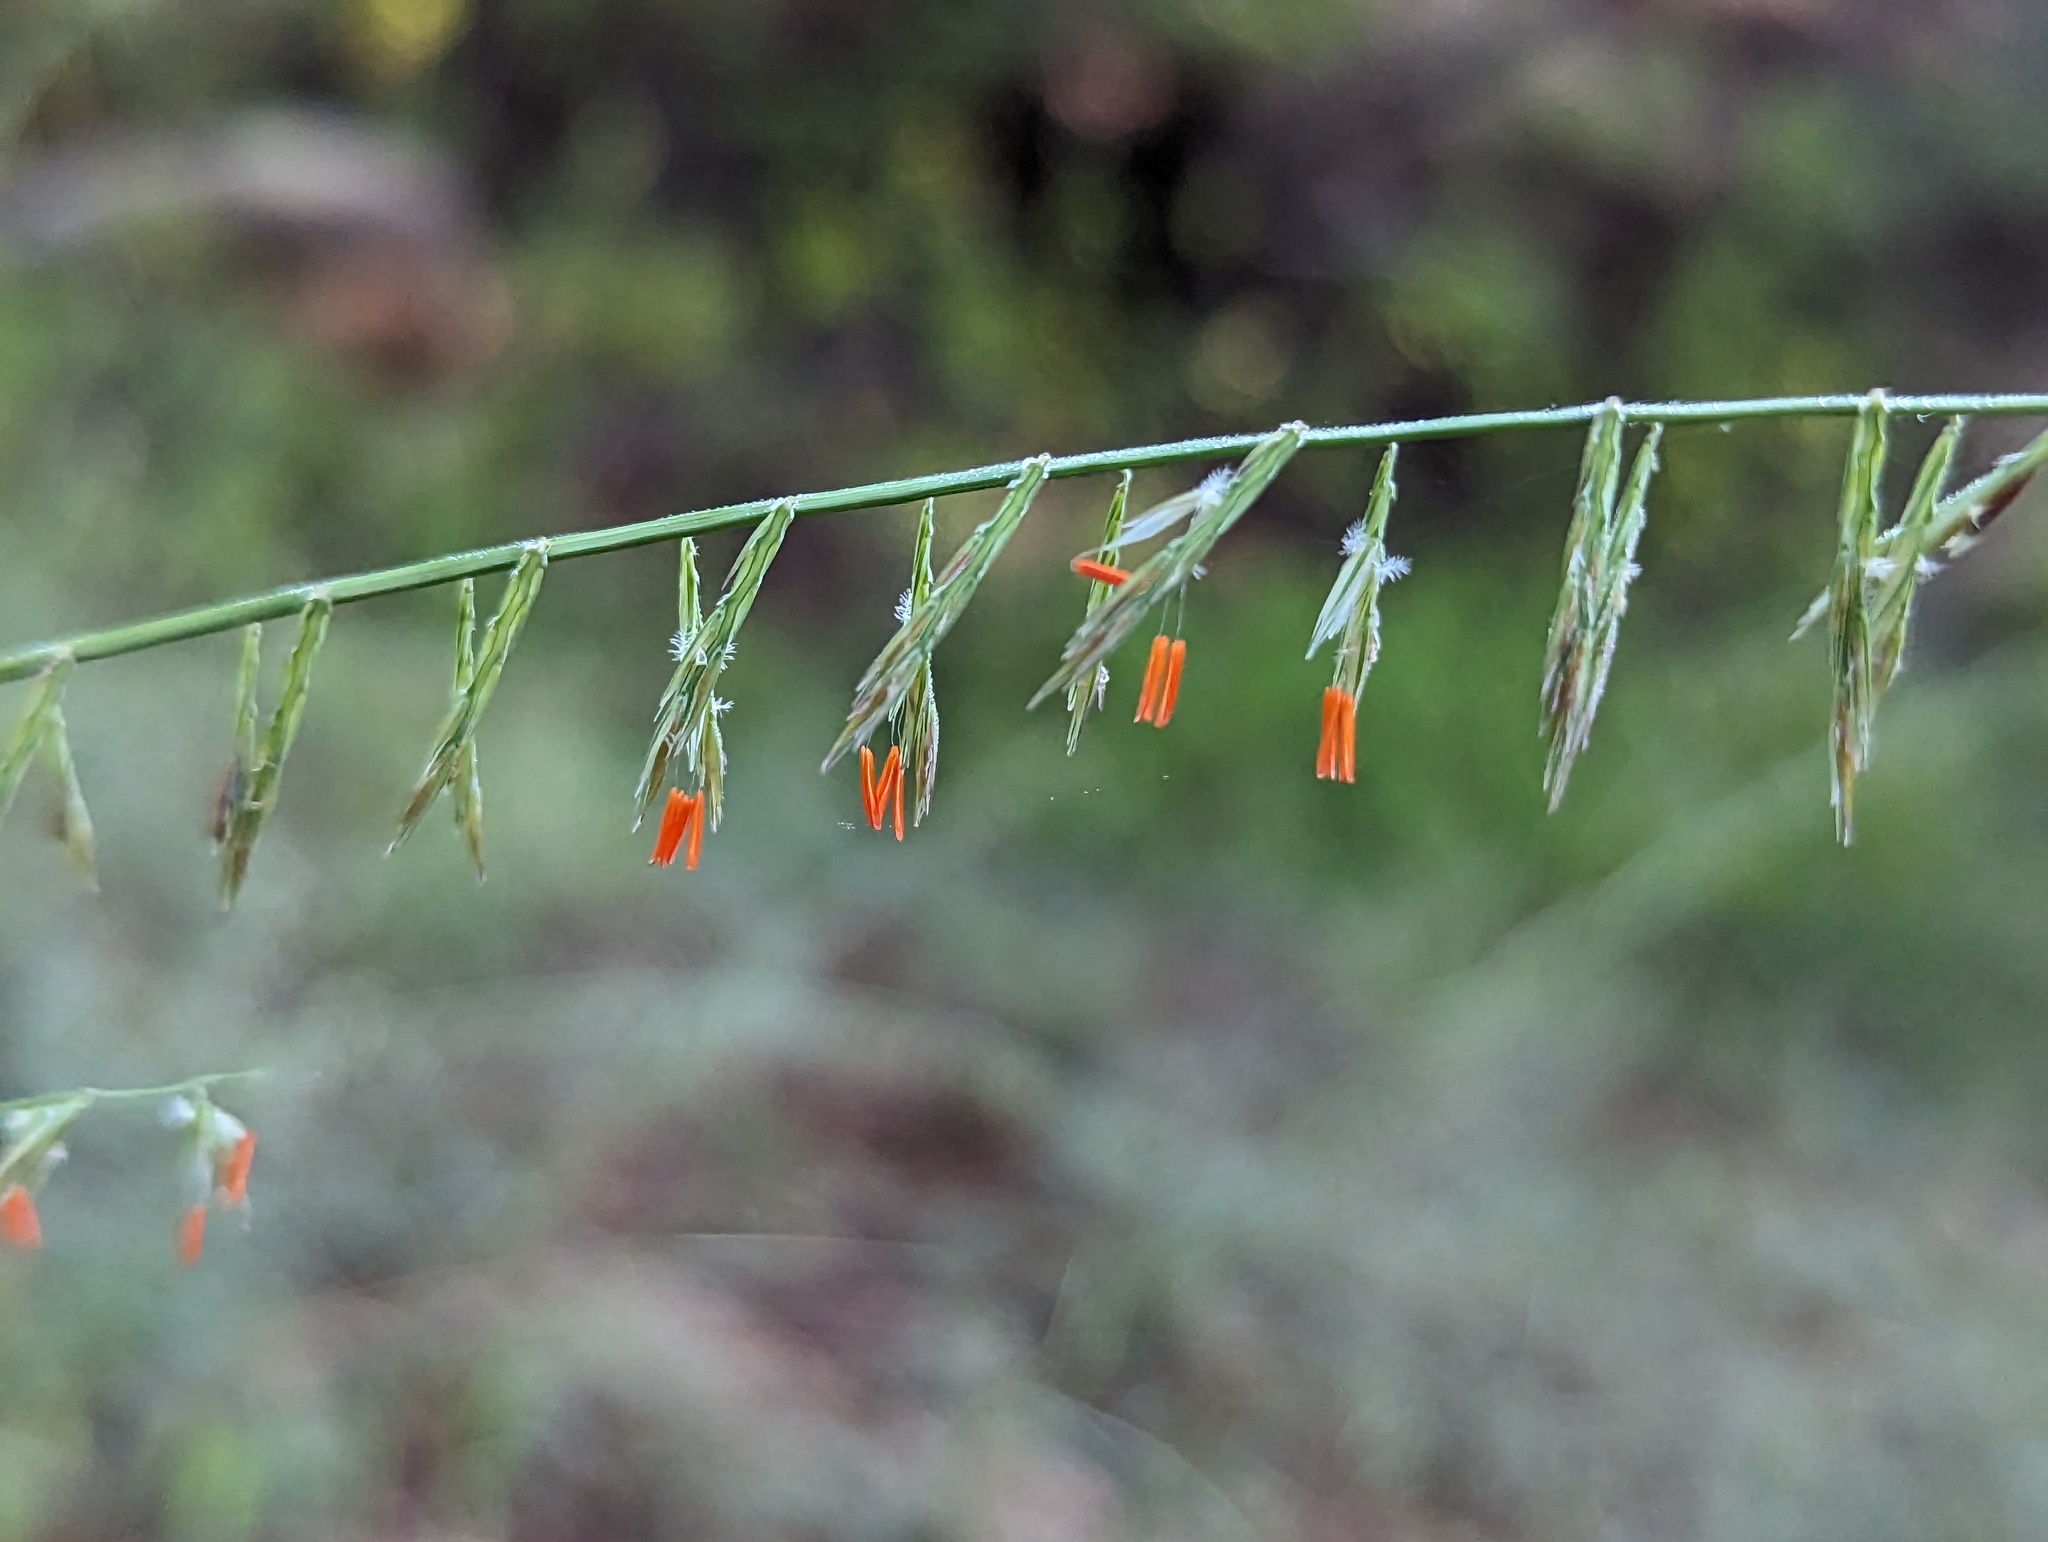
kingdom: Plantae
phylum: Tracheophyta
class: Liliopsida
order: Poales
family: Poaceae
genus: Bouteloua
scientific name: Bouteloua reflexa
